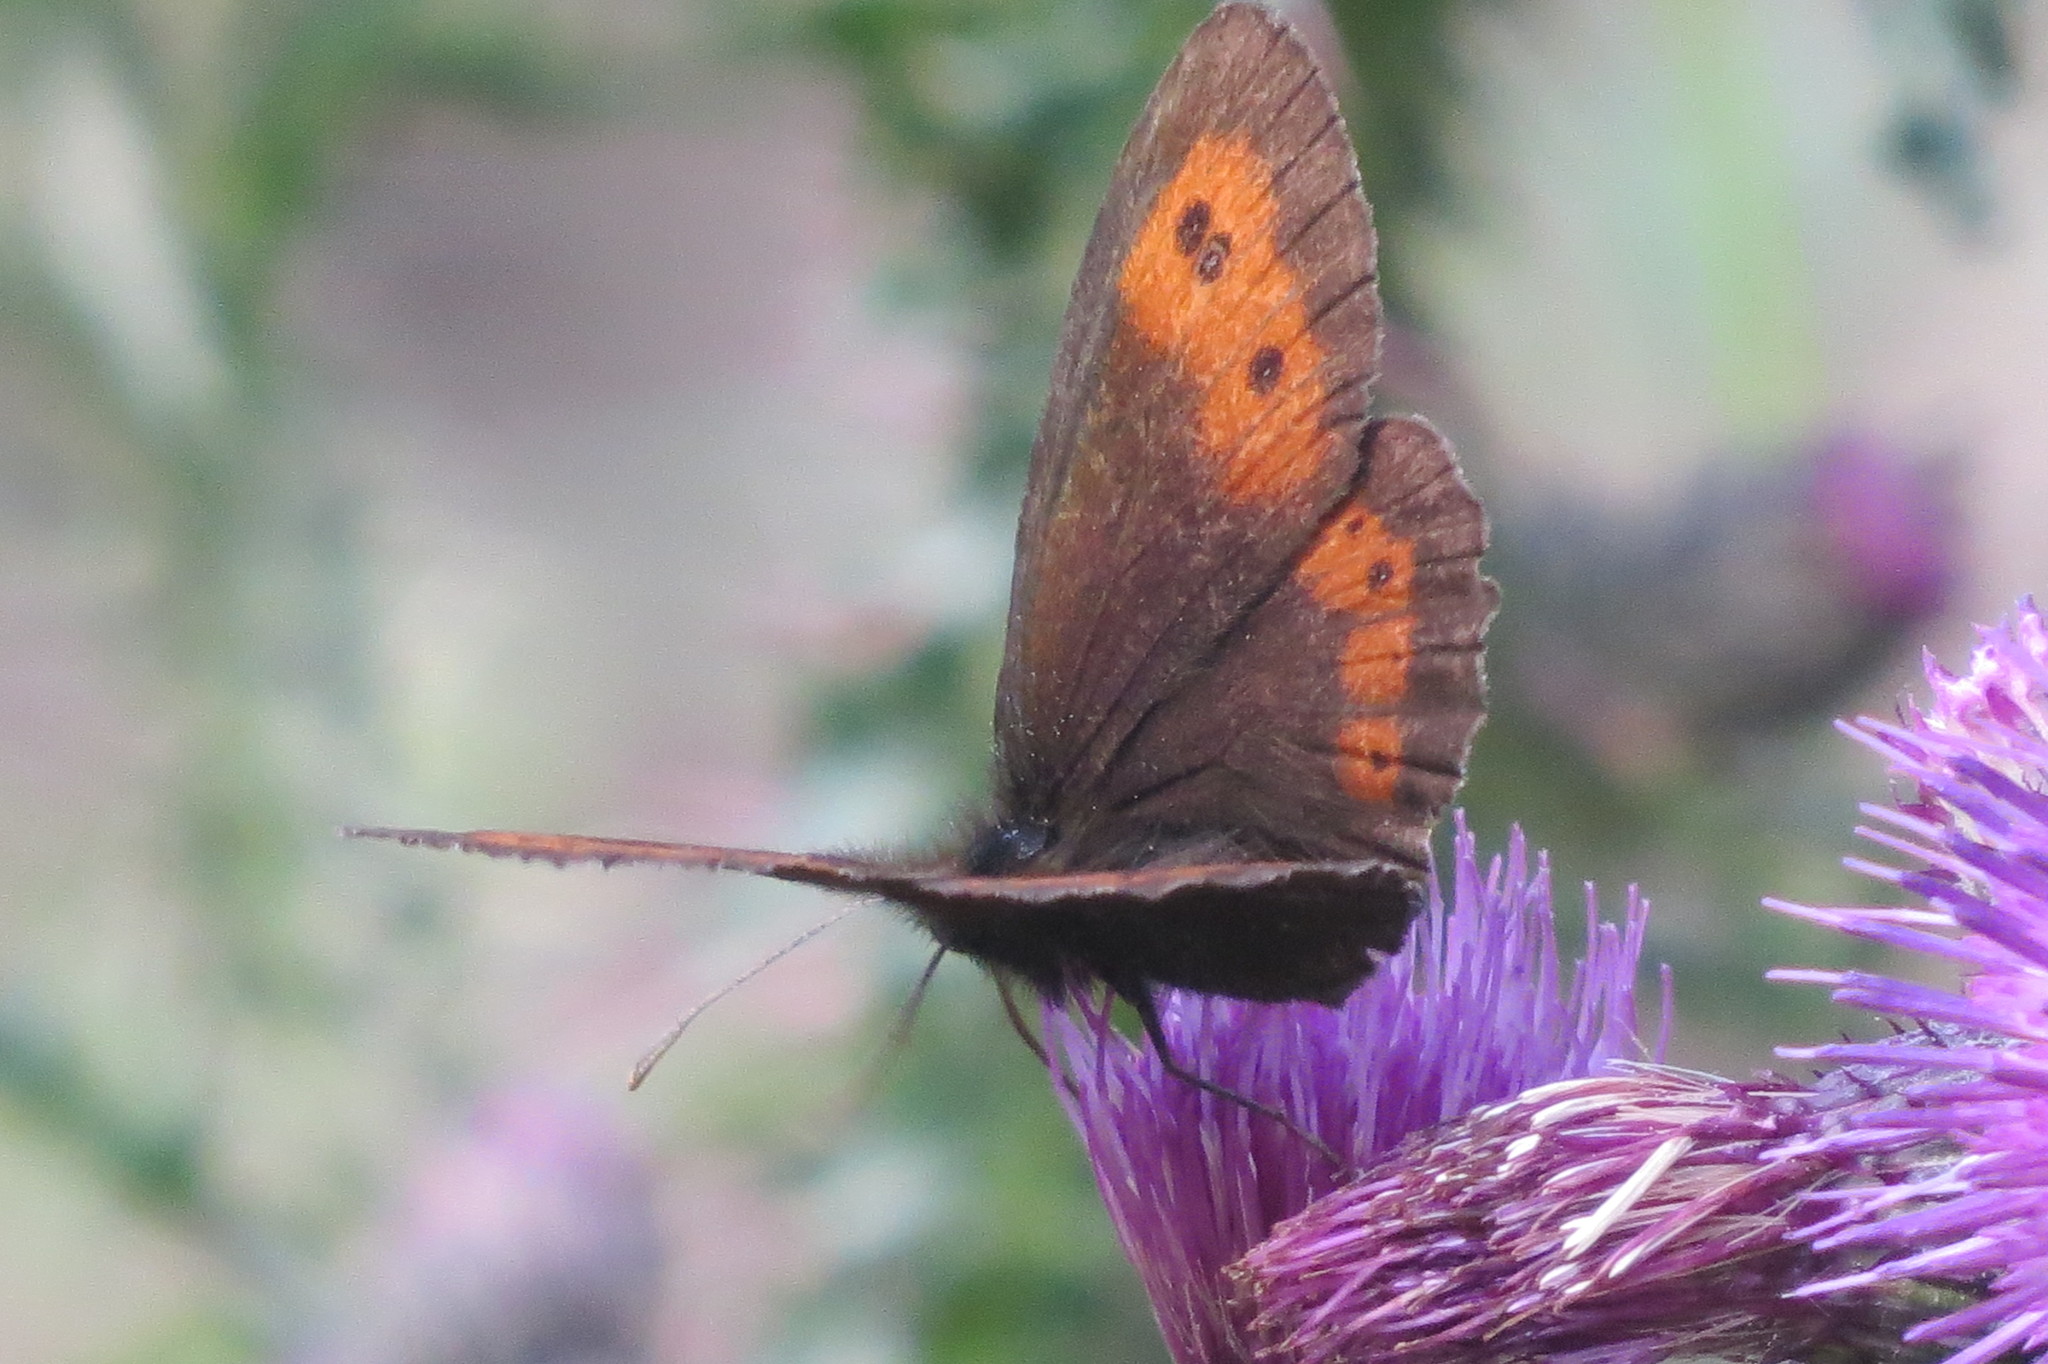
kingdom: Animalia
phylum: Arthropoda
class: Insecta
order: Lepidoptera
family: Nymphalidae
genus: Erebia
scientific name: Erebia euryale
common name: Large ringlet
